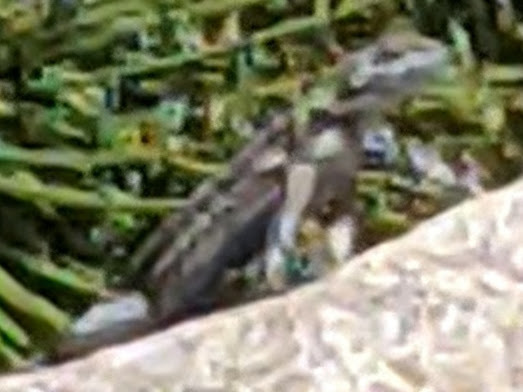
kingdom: Animalia
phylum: Chordata
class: Squamata
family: Phrynosomatidae
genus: Sceloporus
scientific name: Sceloporus occidentalis
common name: Western fence lizard
